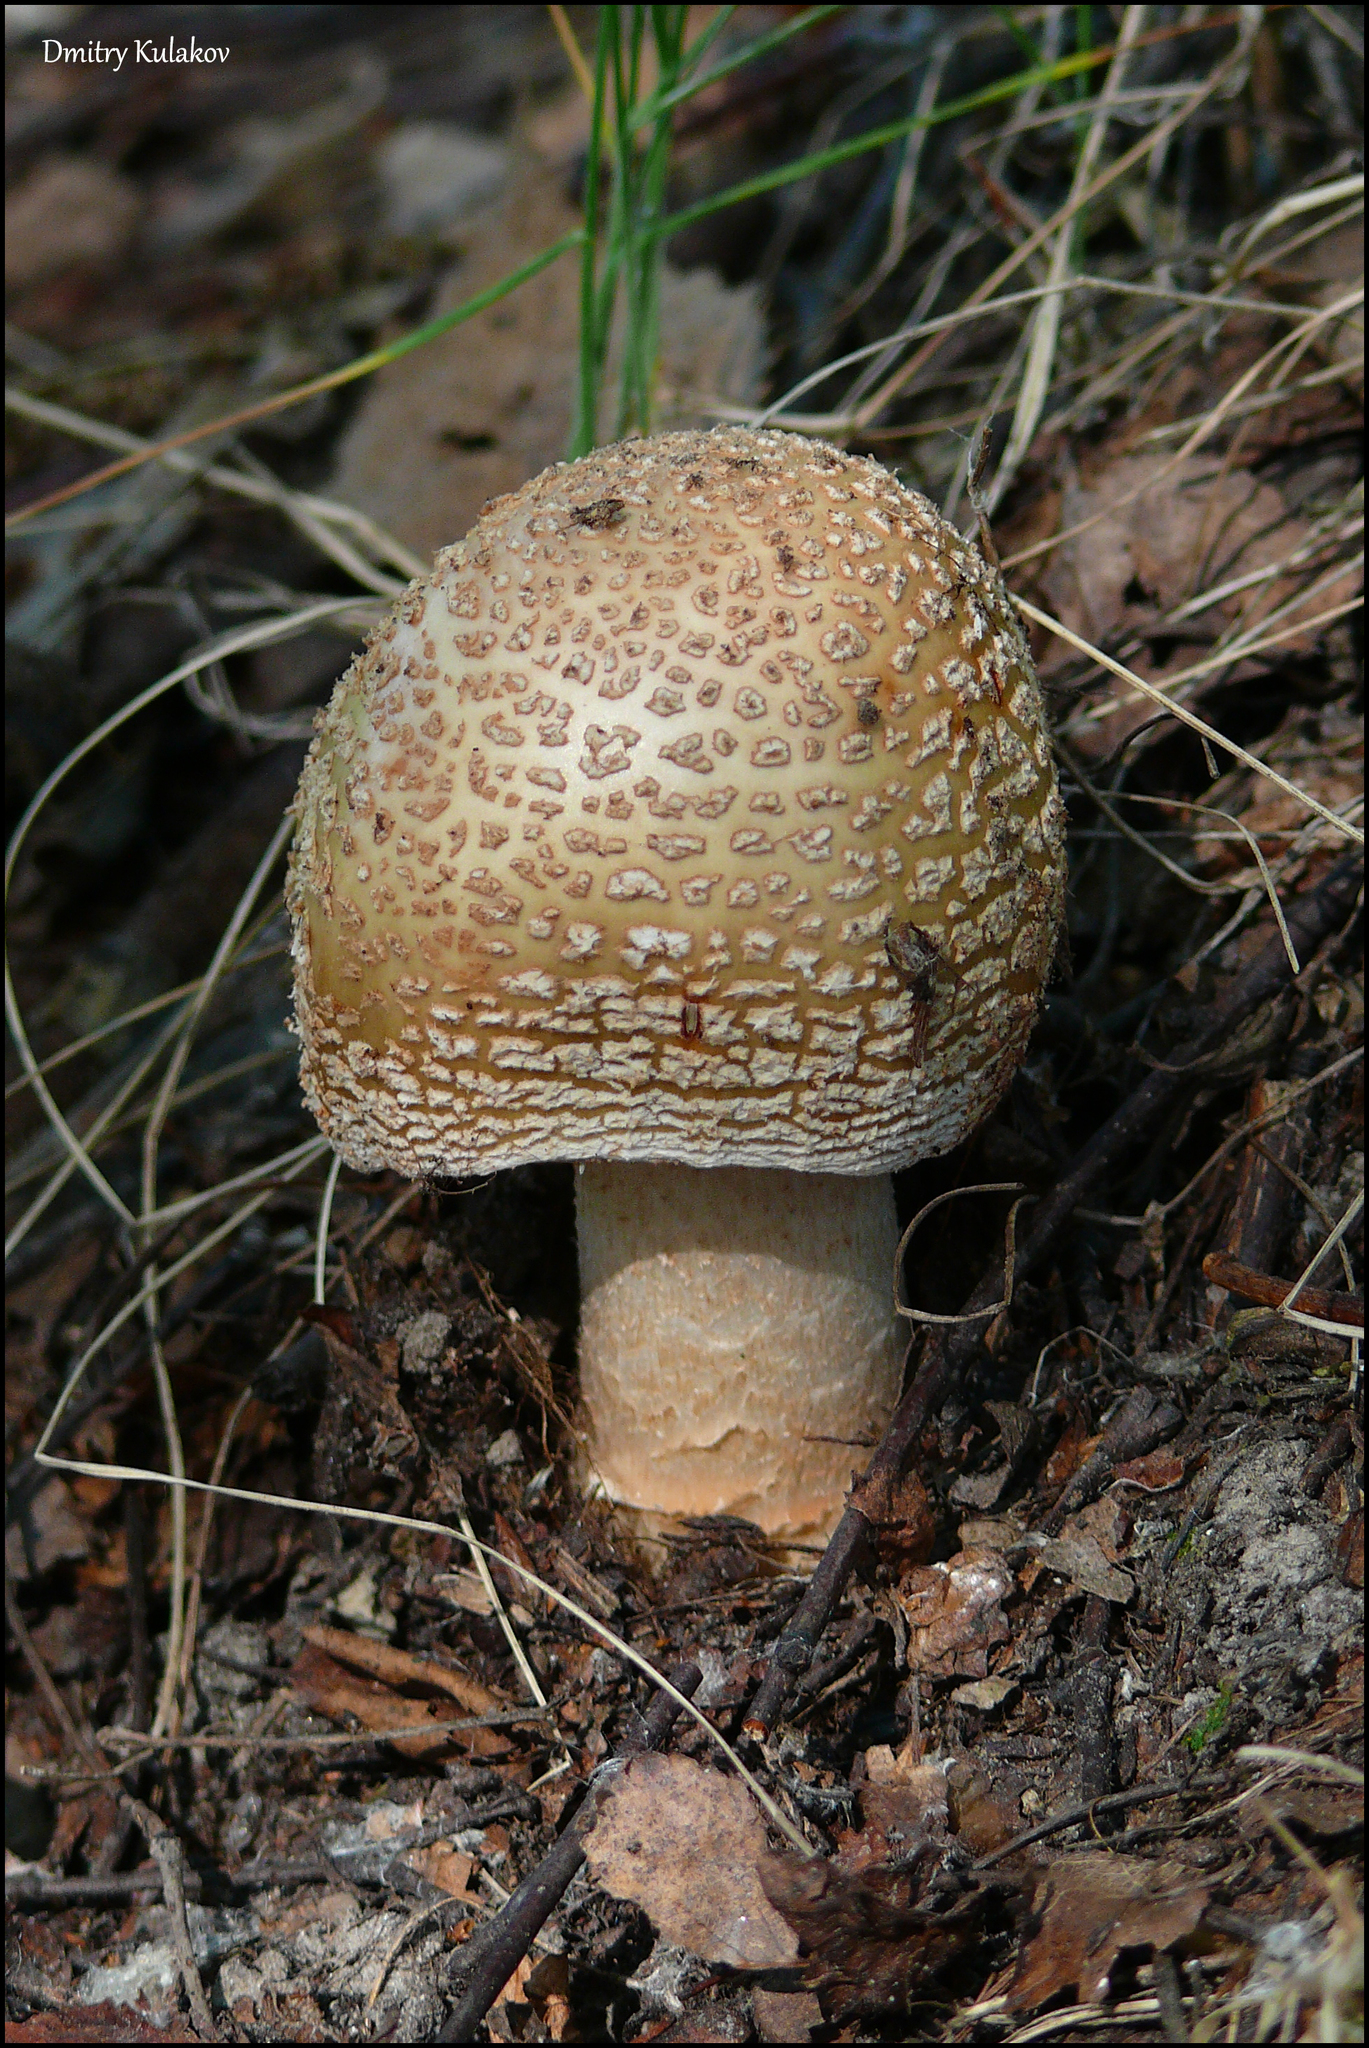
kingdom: Fungi
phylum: Basidiomycota
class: Agaricomycetes
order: Agaricales
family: Amanitaceae
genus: Amanita
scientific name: Amanita rubescens
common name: Blusher
